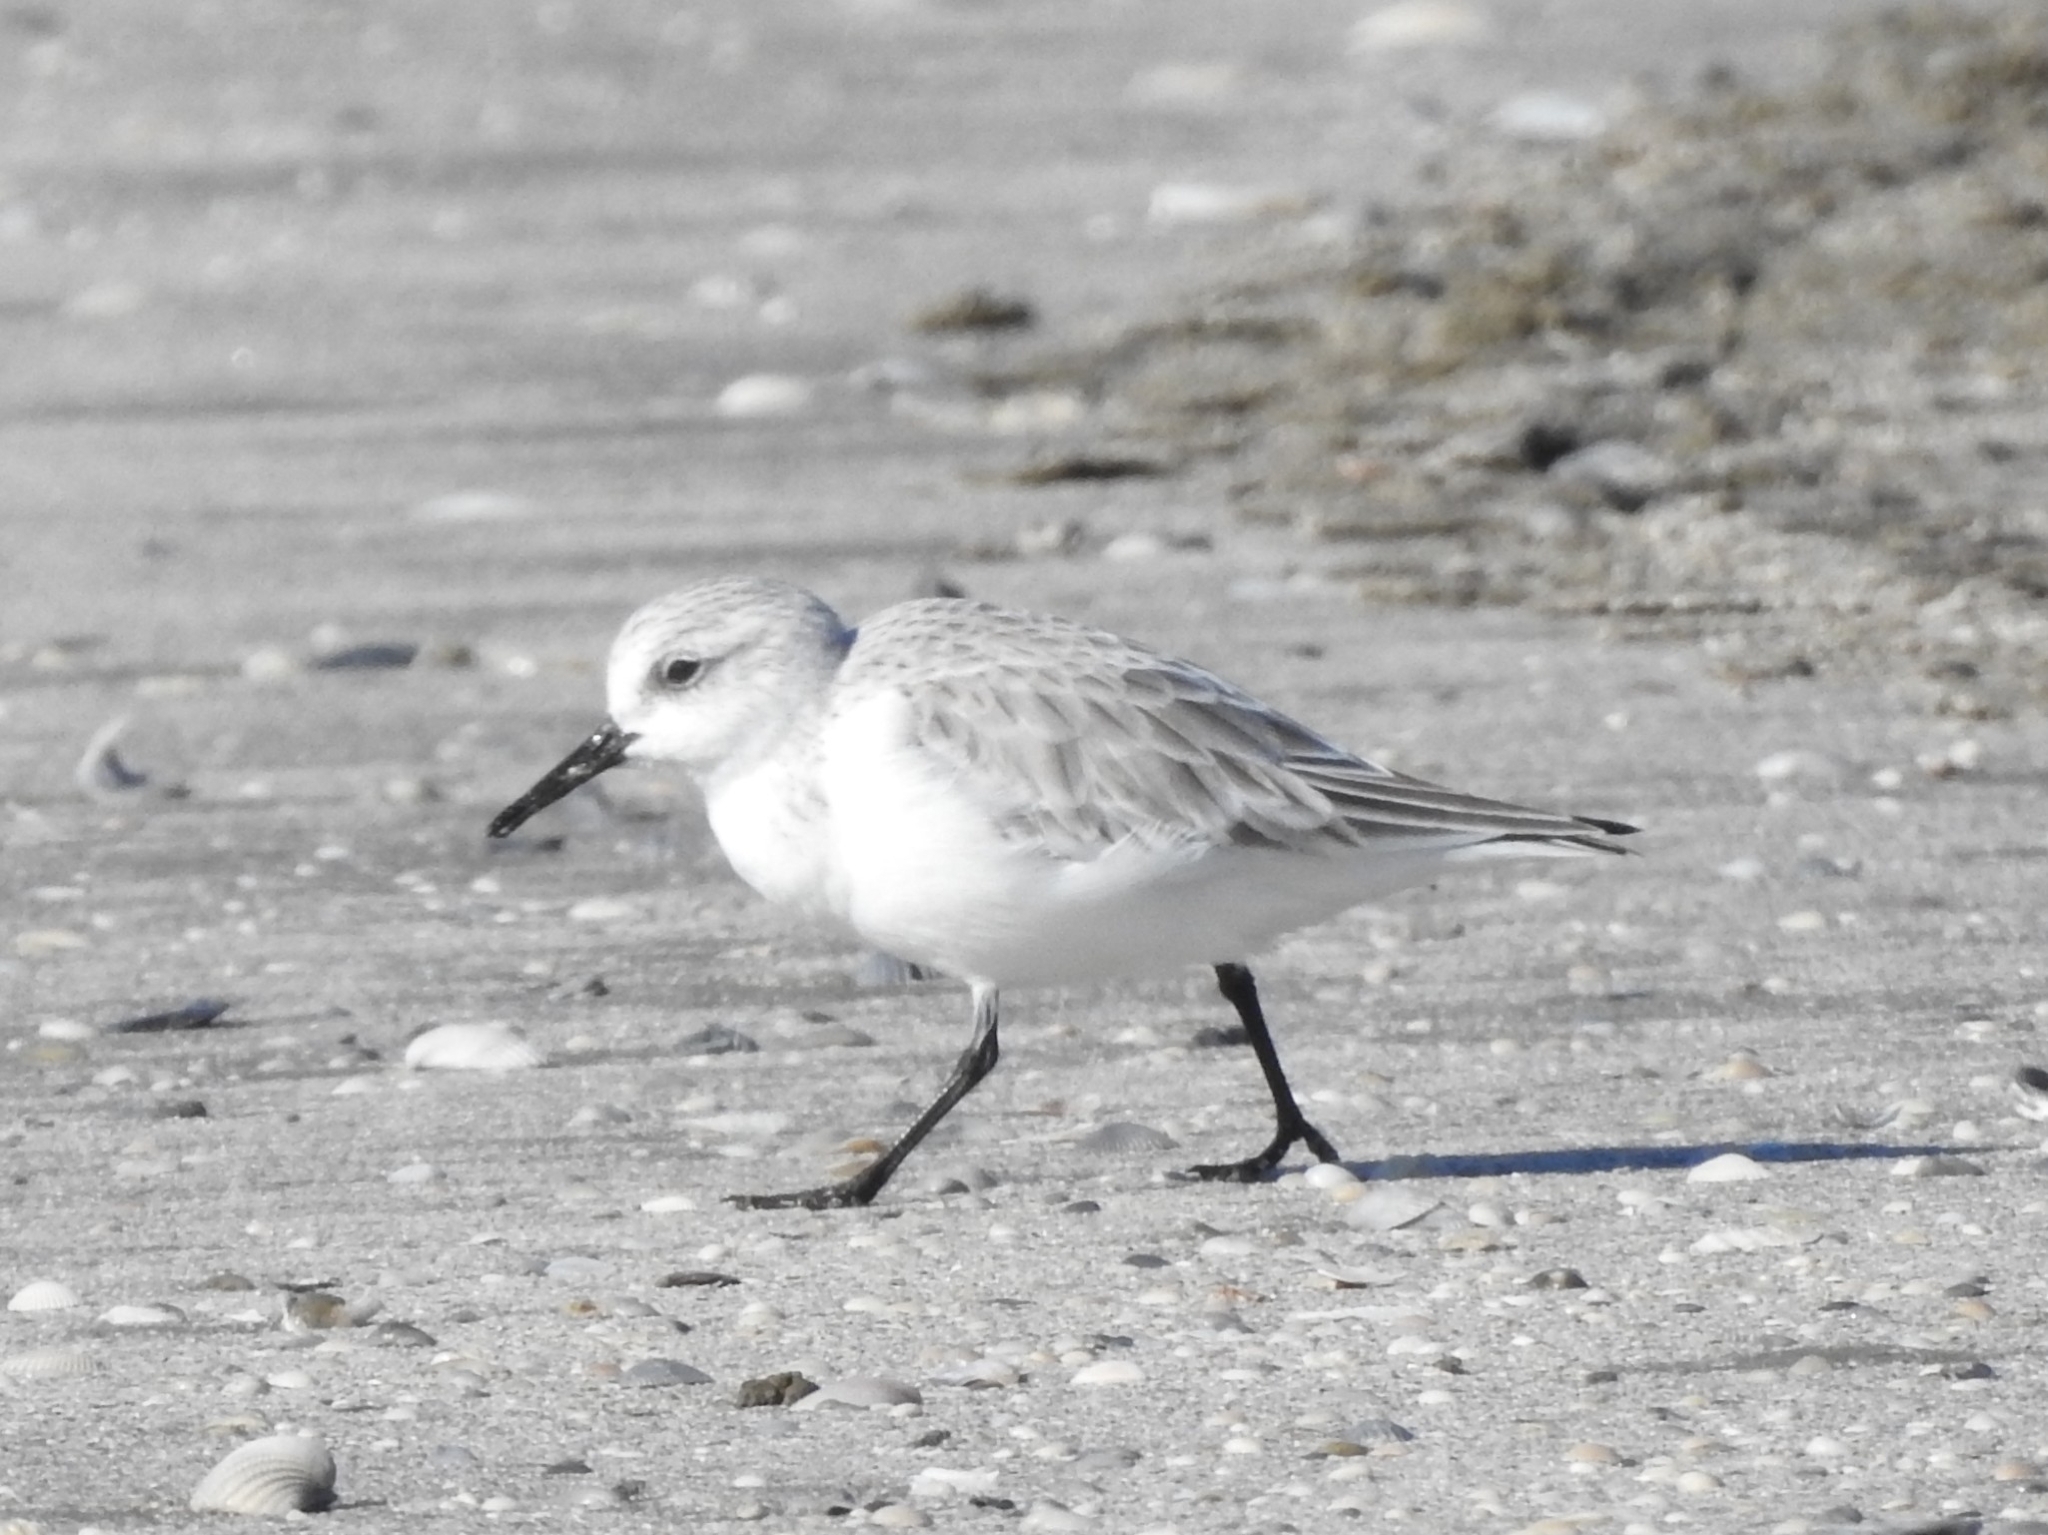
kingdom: Animalia
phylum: Chordata
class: Aves
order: Charadriiformes
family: Scolopacidae
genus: Calidris
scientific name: Calidris alba
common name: Sanderling
